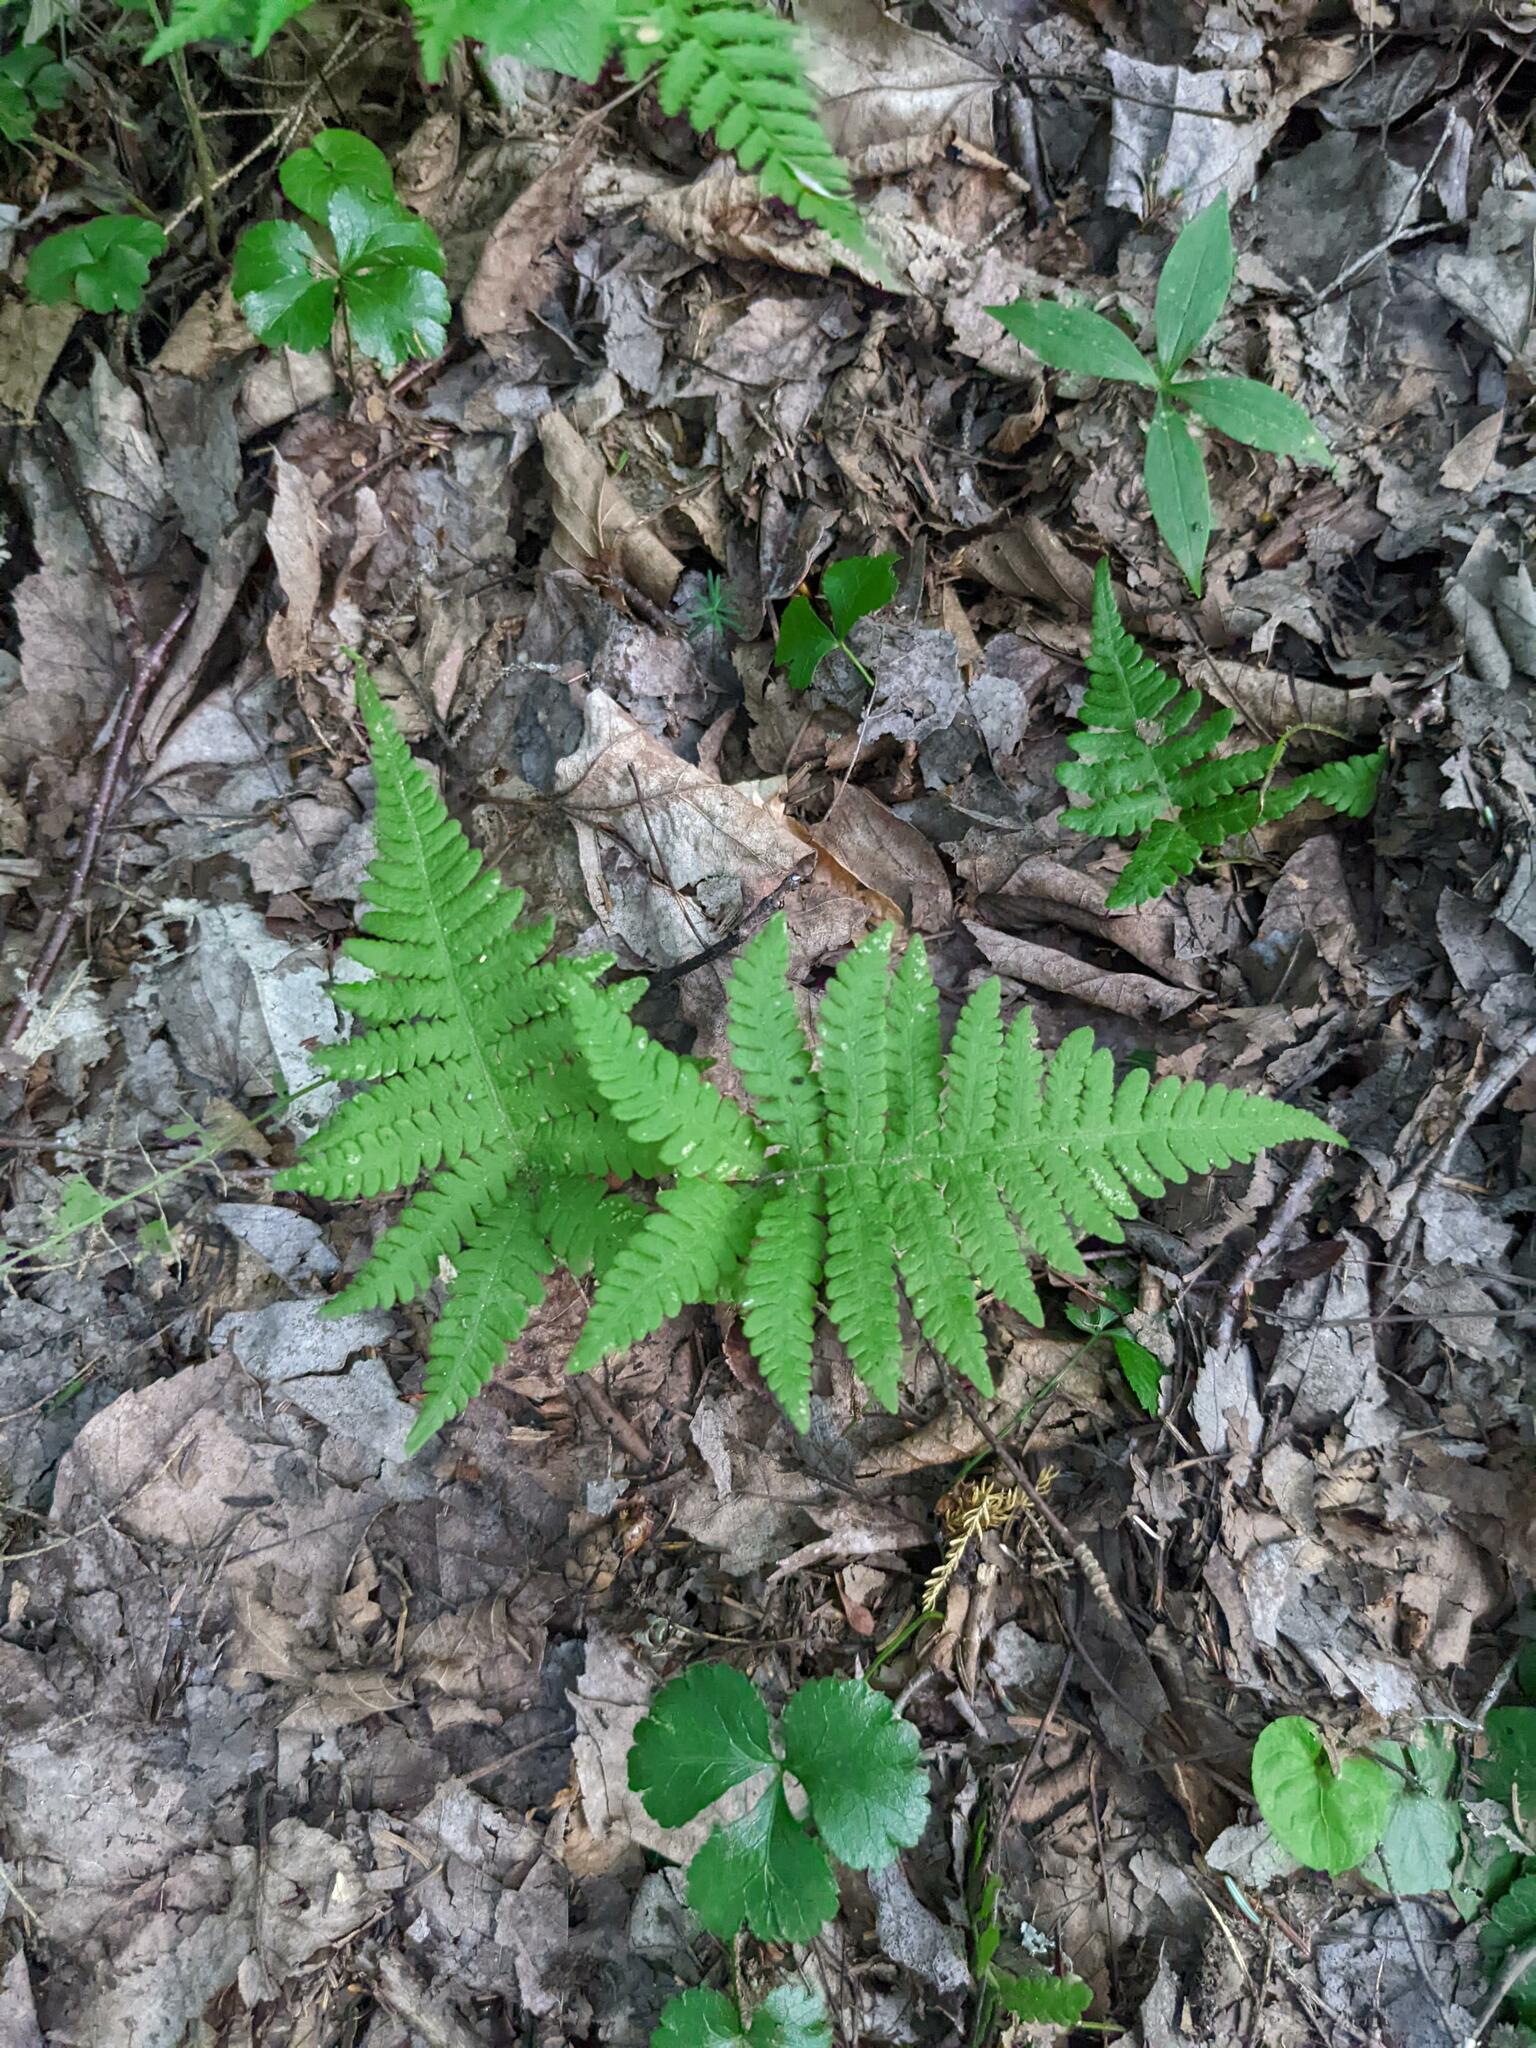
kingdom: Plantae
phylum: Tracheophyta
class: Polypodiopsida
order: Polypodiales
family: Thelypteridaceae
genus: Phegopteris
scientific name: Phegopteris connectilis
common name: Beech fern
